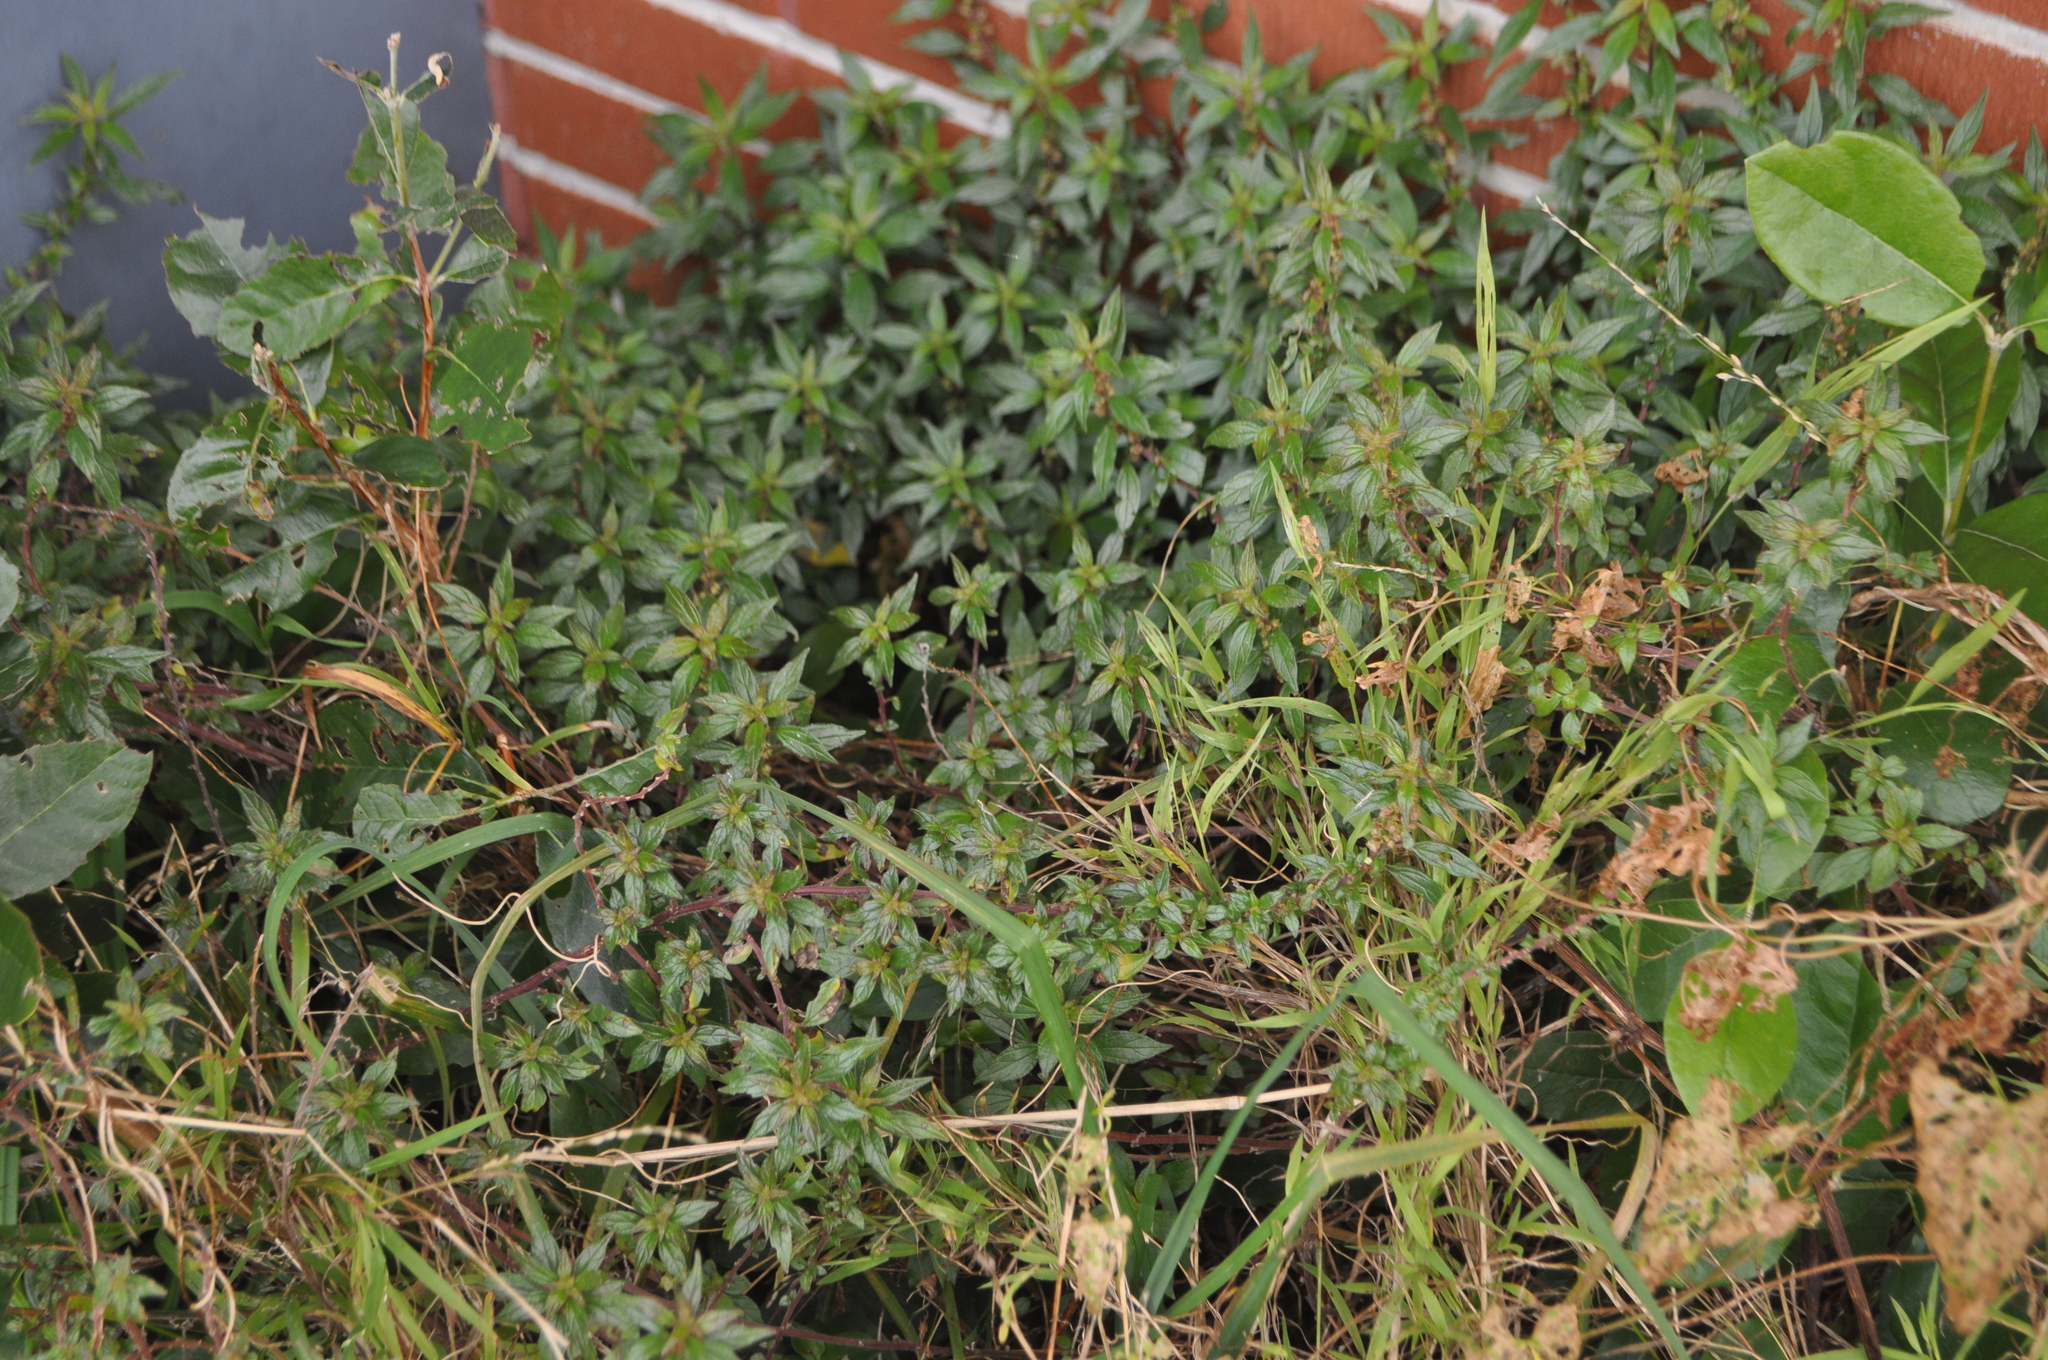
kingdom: Plantae
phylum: Tracheophyta
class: Magnoliopsida
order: Rosales
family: Urticaceae
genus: Parietaria
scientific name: Parietaria judaica
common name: Pellitory-of-the-wall
